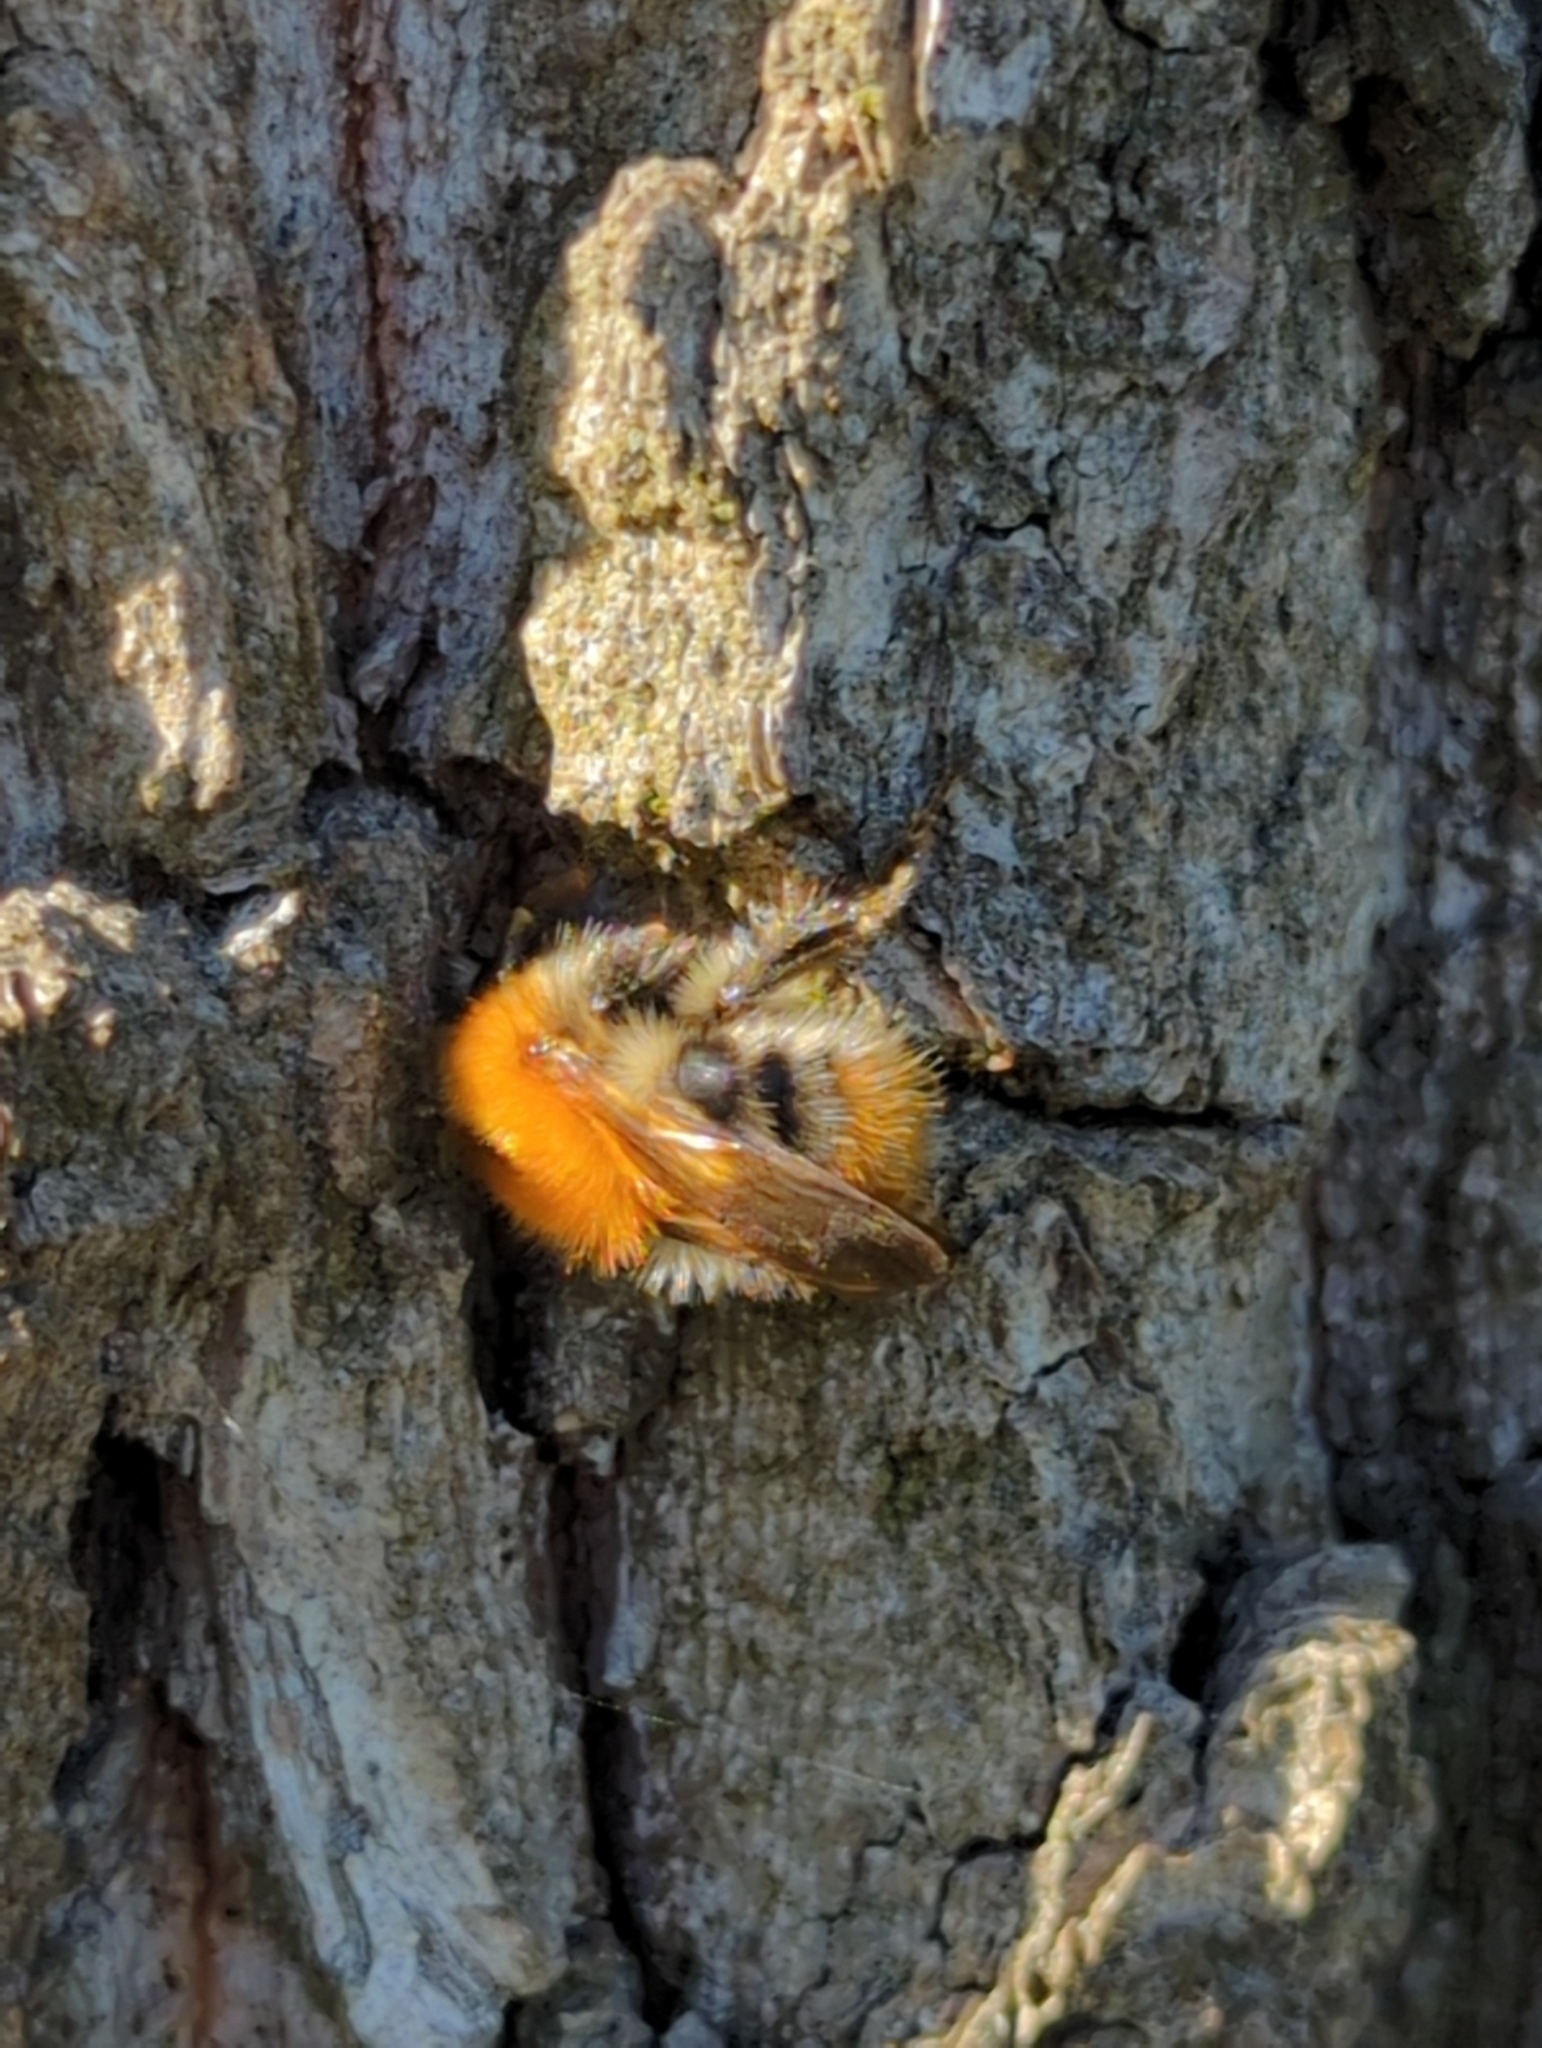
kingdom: Animalia
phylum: Arthropoda
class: Insecta
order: Hymenoptera
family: Apidae
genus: Bombus
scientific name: Bombus pascuorum
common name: Common carder bee
